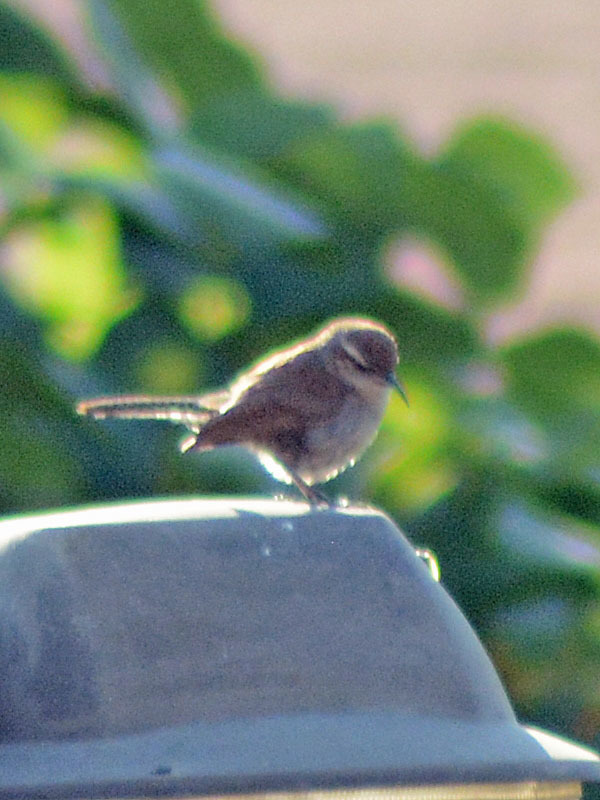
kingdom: Animalia
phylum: Chordata
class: Aves
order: Passeriformes
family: Troglodytidae
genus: Thryomanes
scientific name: Thryomanes bewickii
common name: Bewick's wren
